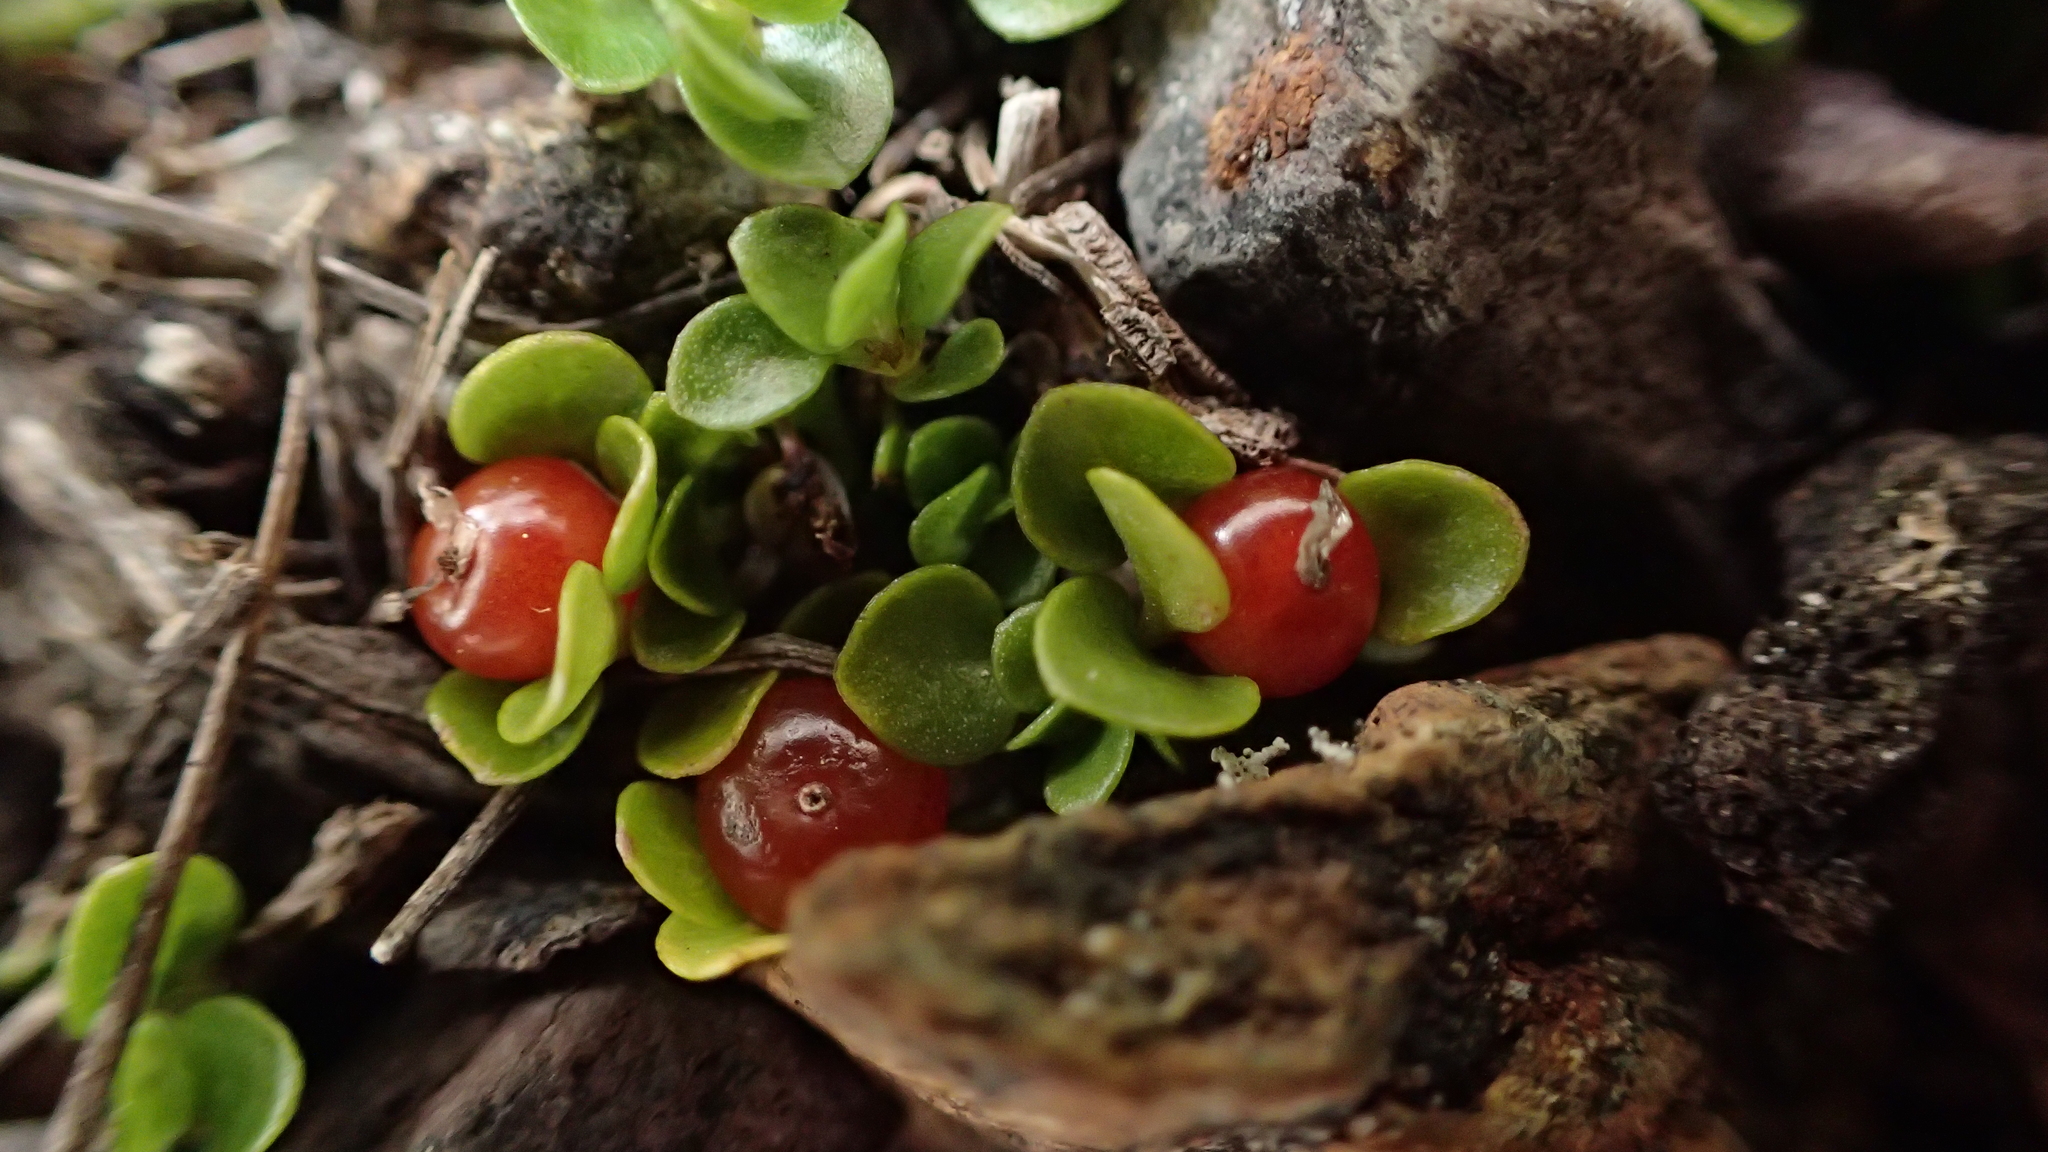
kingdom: Plantae
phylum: Tracheophyta
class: Magnoliopsida
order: Gentianales
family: Rubiaceae
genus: Nertera
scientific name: Nertera granadensis
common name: Beadplant
